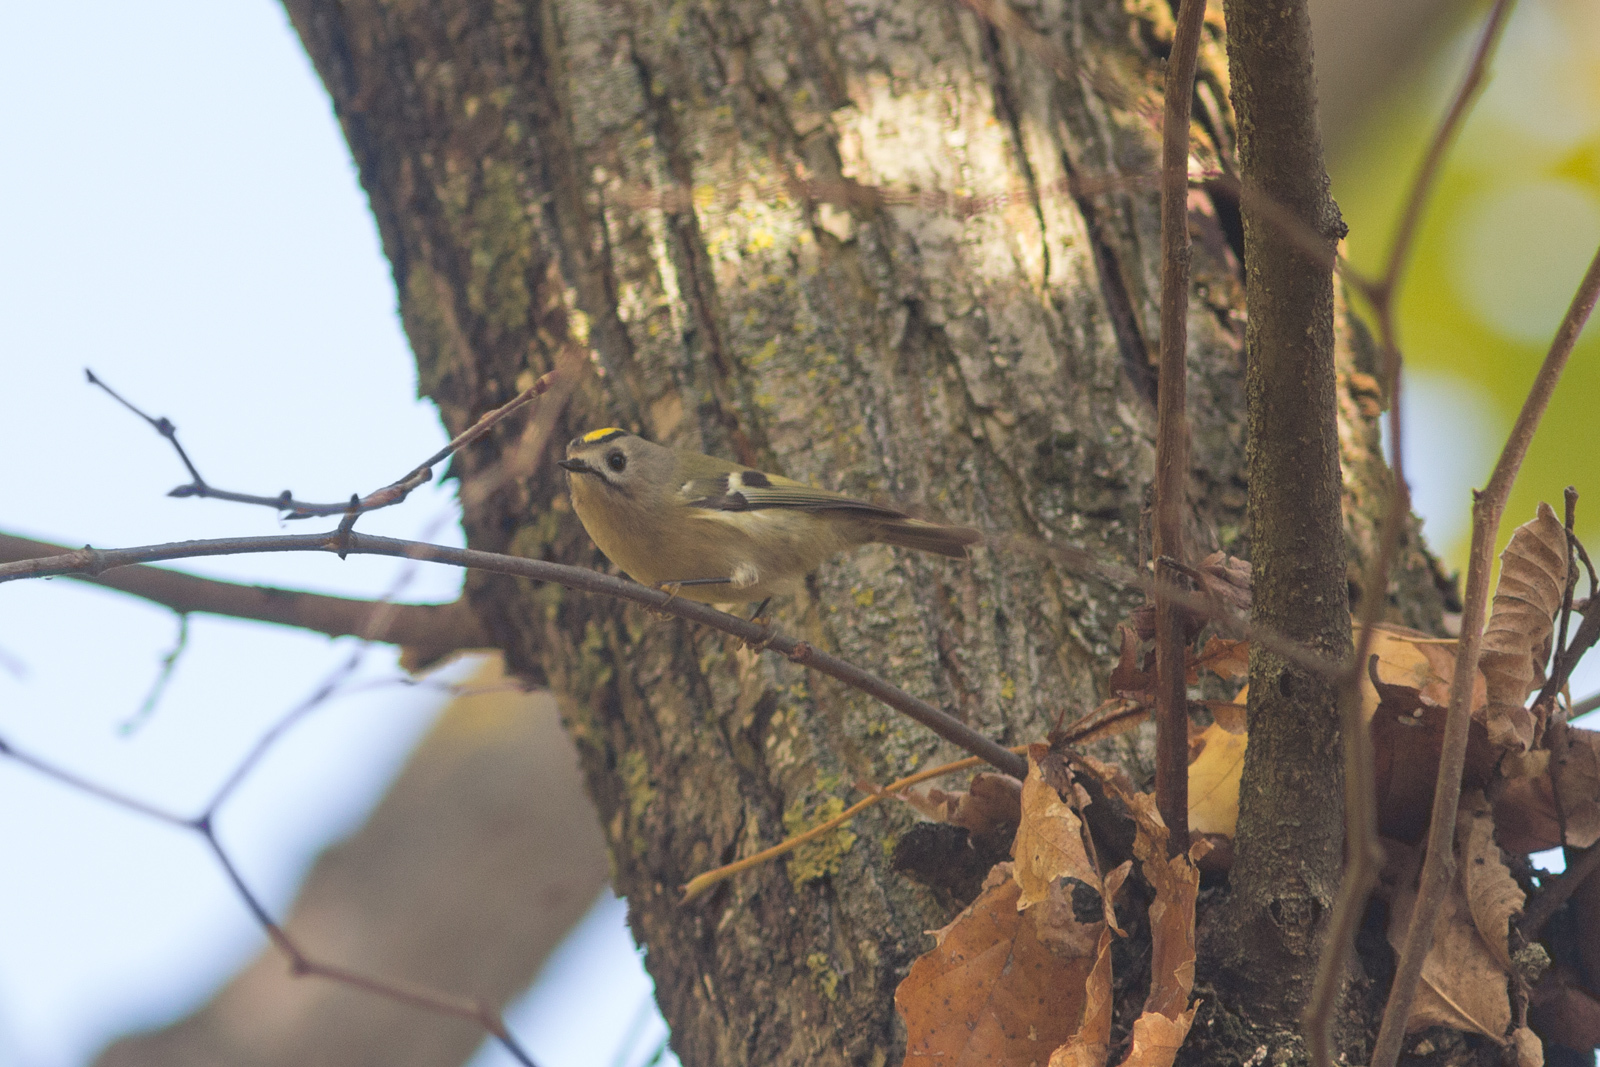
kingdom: Animalia
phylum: Chordata
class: Aves
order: Passeriformes
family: Regulidae
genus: Regulus
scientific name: Regulus regulus
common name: Goldcrest
